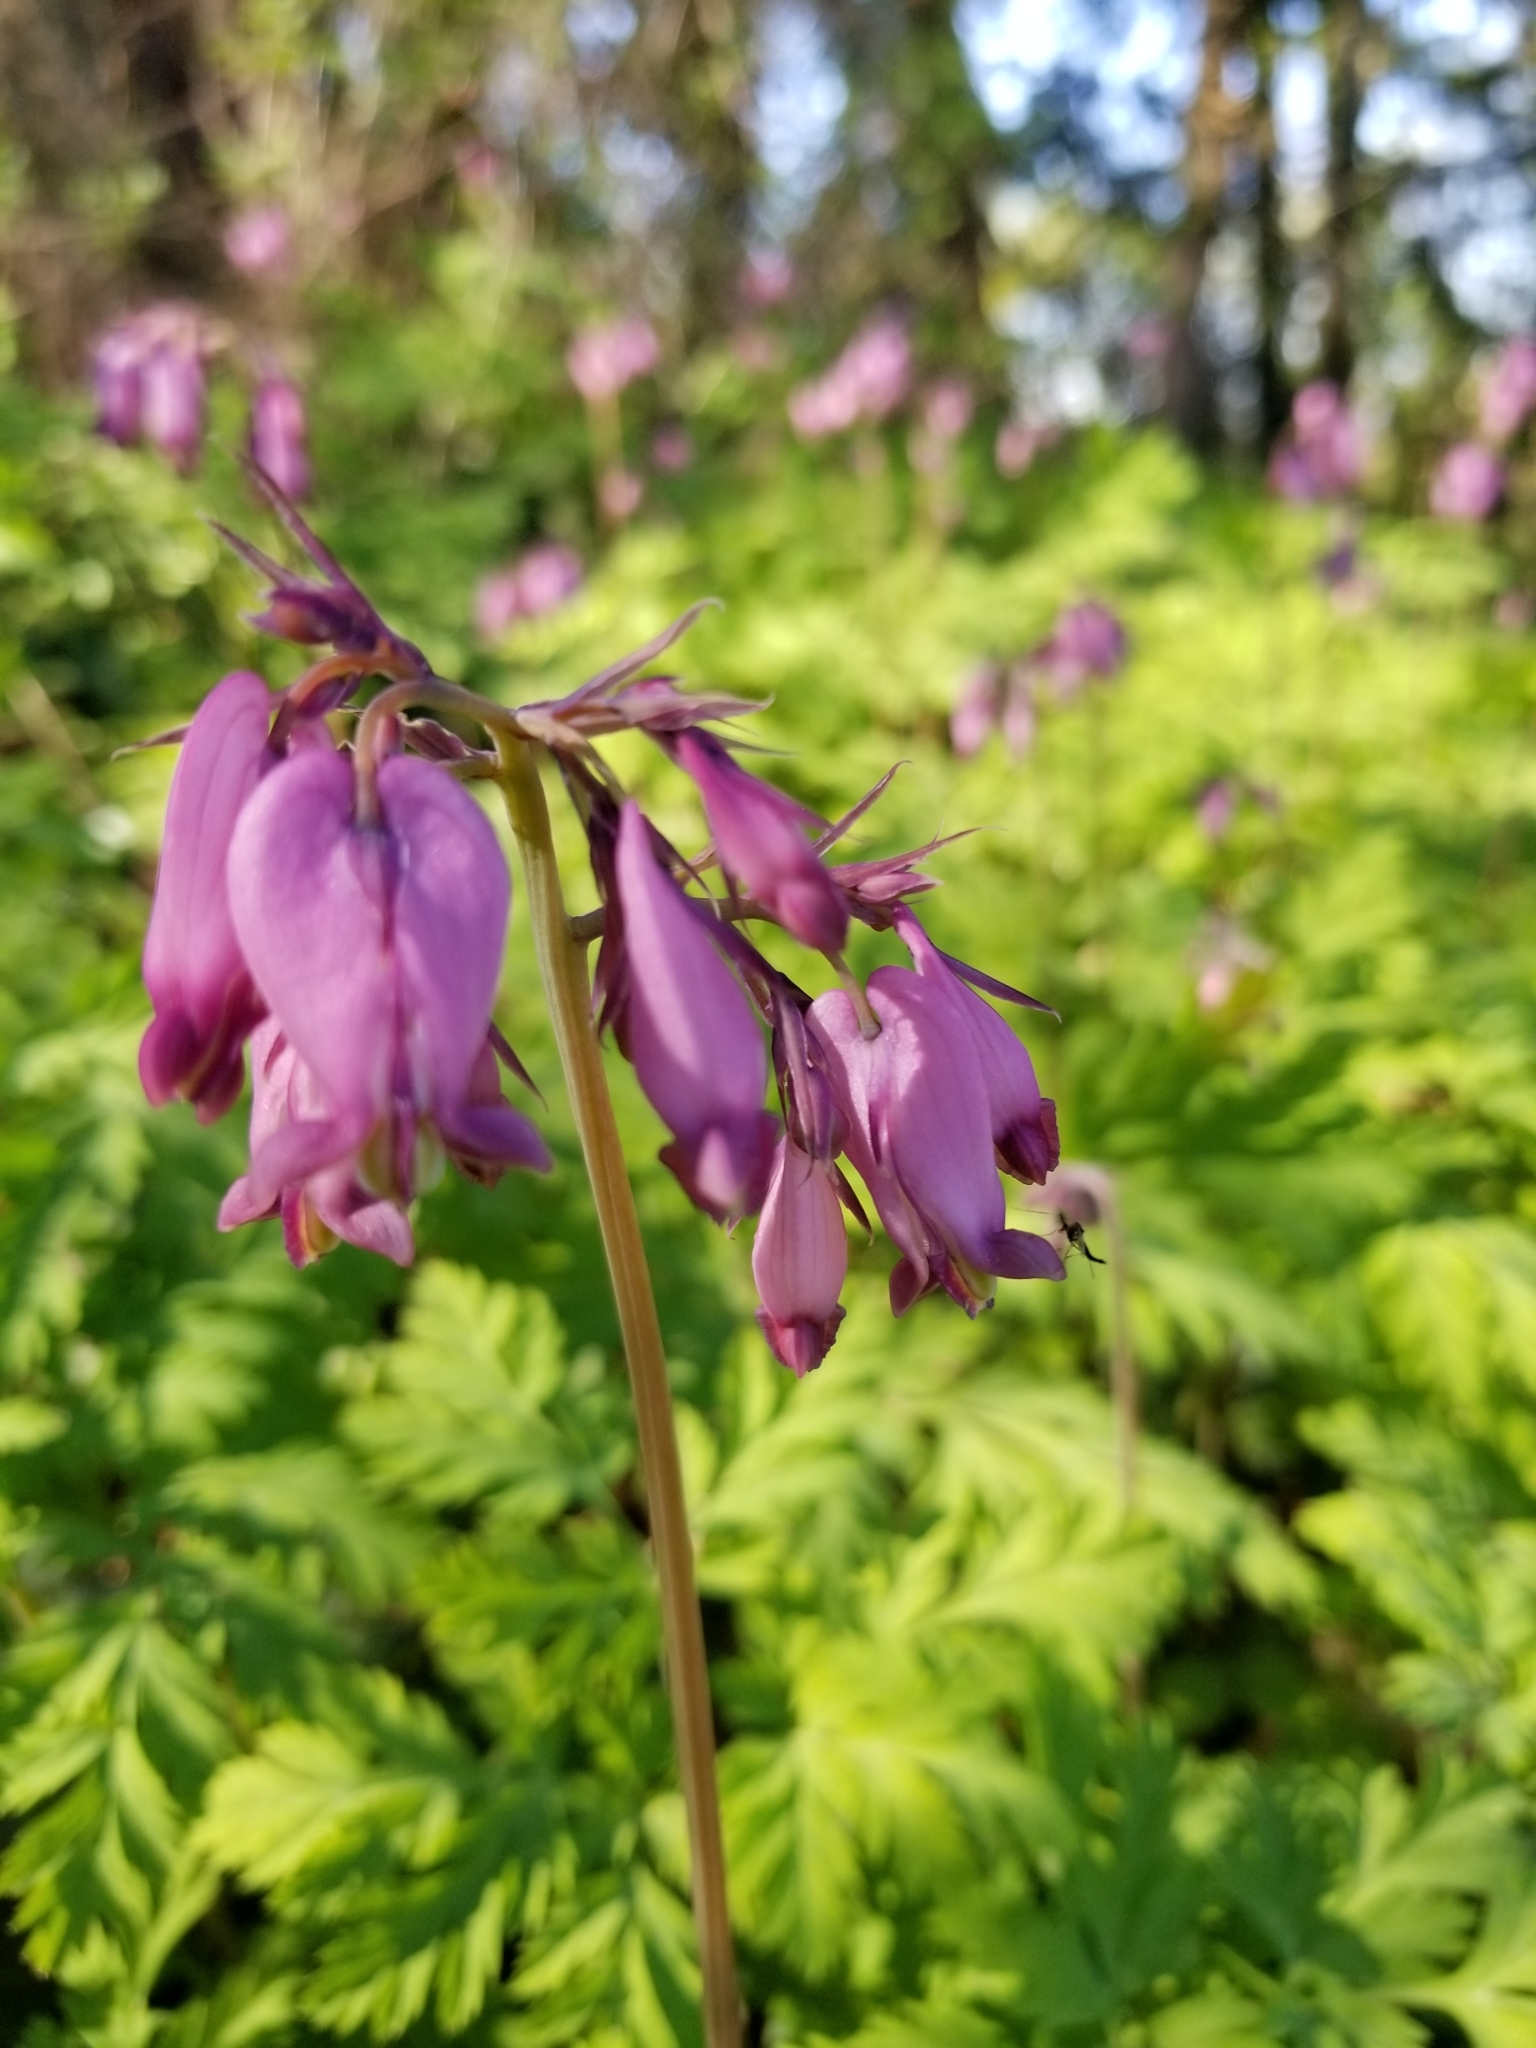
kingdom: Plantae
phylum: Tracheophyta
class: Magnoliopsida
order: Ranunculales
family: Papaveraceae
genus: Dicentra
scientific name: Dicentra formosa
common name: Bleeding-heart
